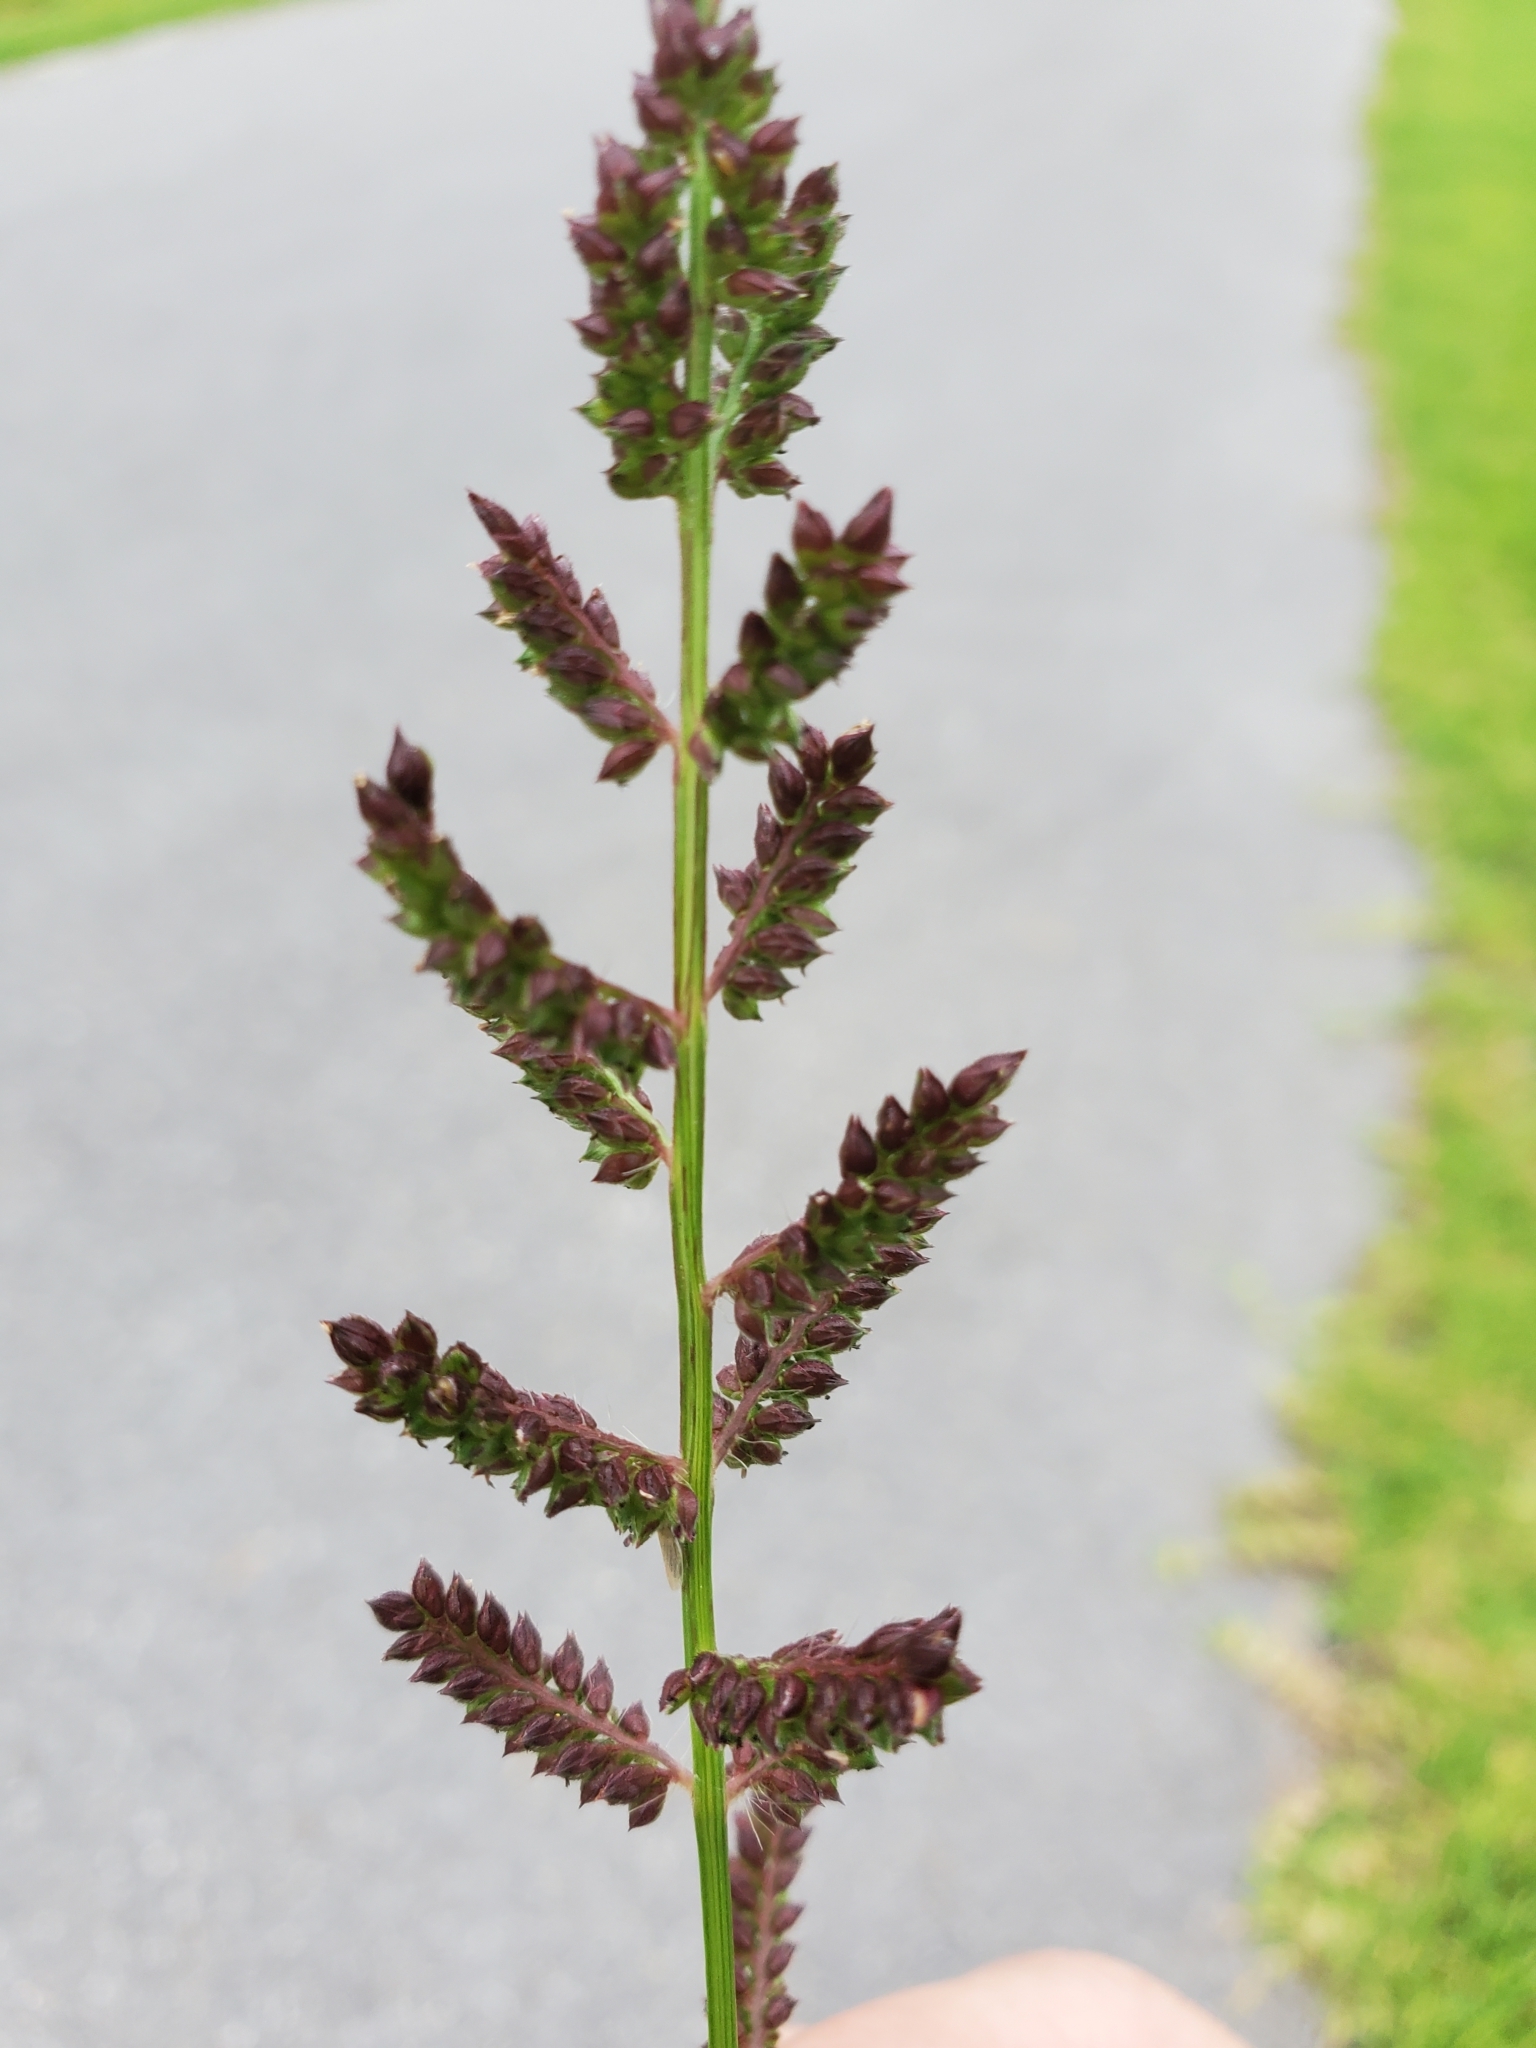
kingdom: Plantae
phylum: Tracheophyta
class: Liliopsida
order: Poales
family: Poaceae
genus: Echinochloa
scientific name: Echinochloa colonum
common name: Jungle rice
